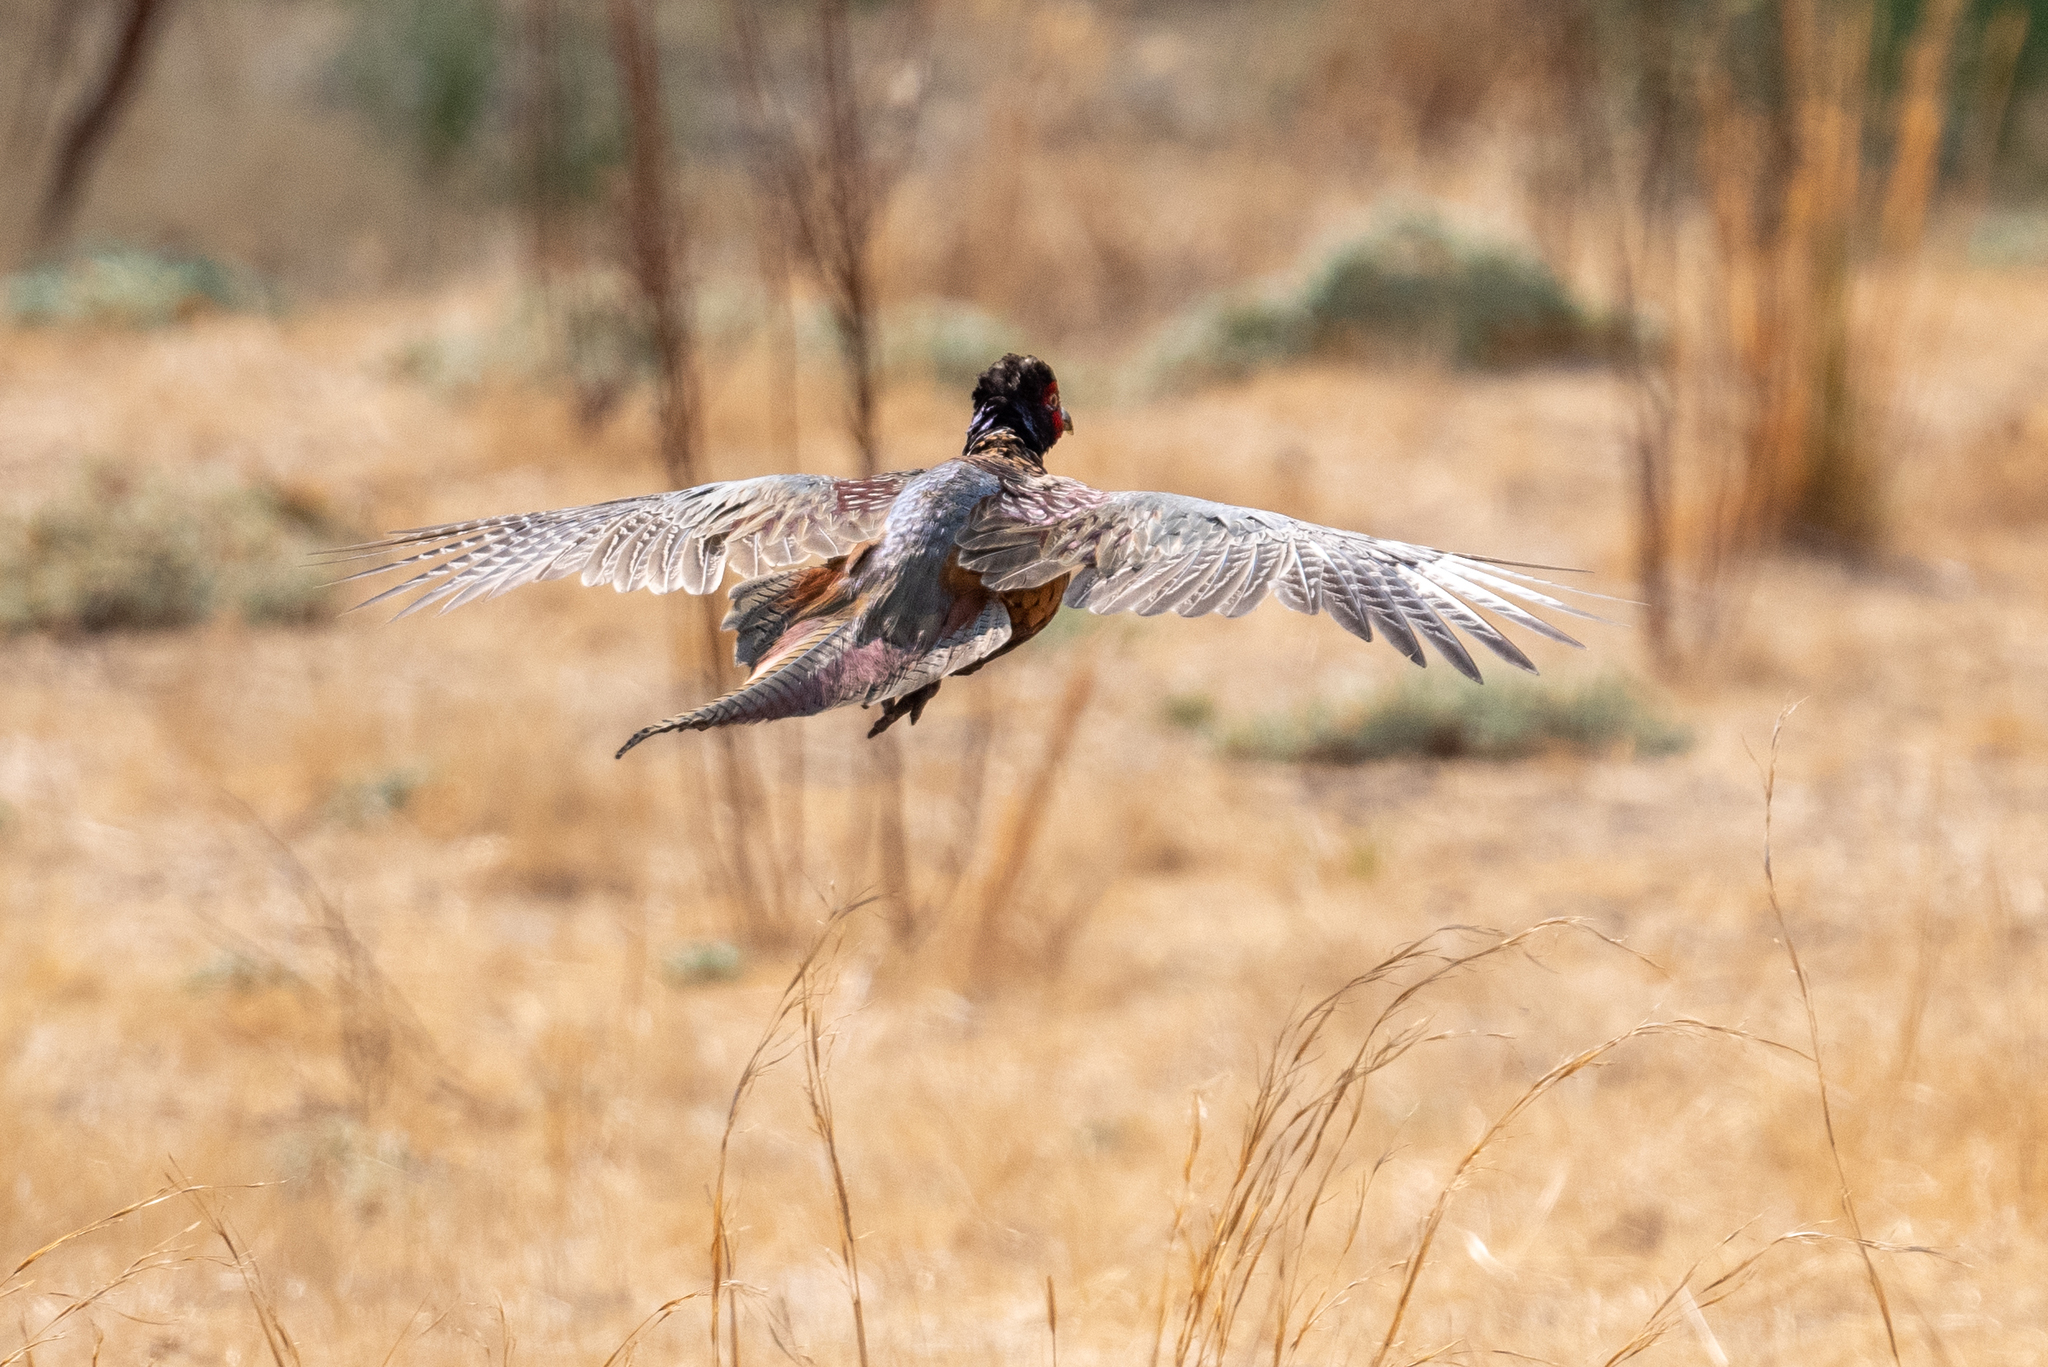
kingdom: Animalia
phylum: Chordata
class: Aves
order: Galliformes
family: Phasianidae
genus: Phasianus
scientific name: Phasianus colchicus
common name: Common pheasant
